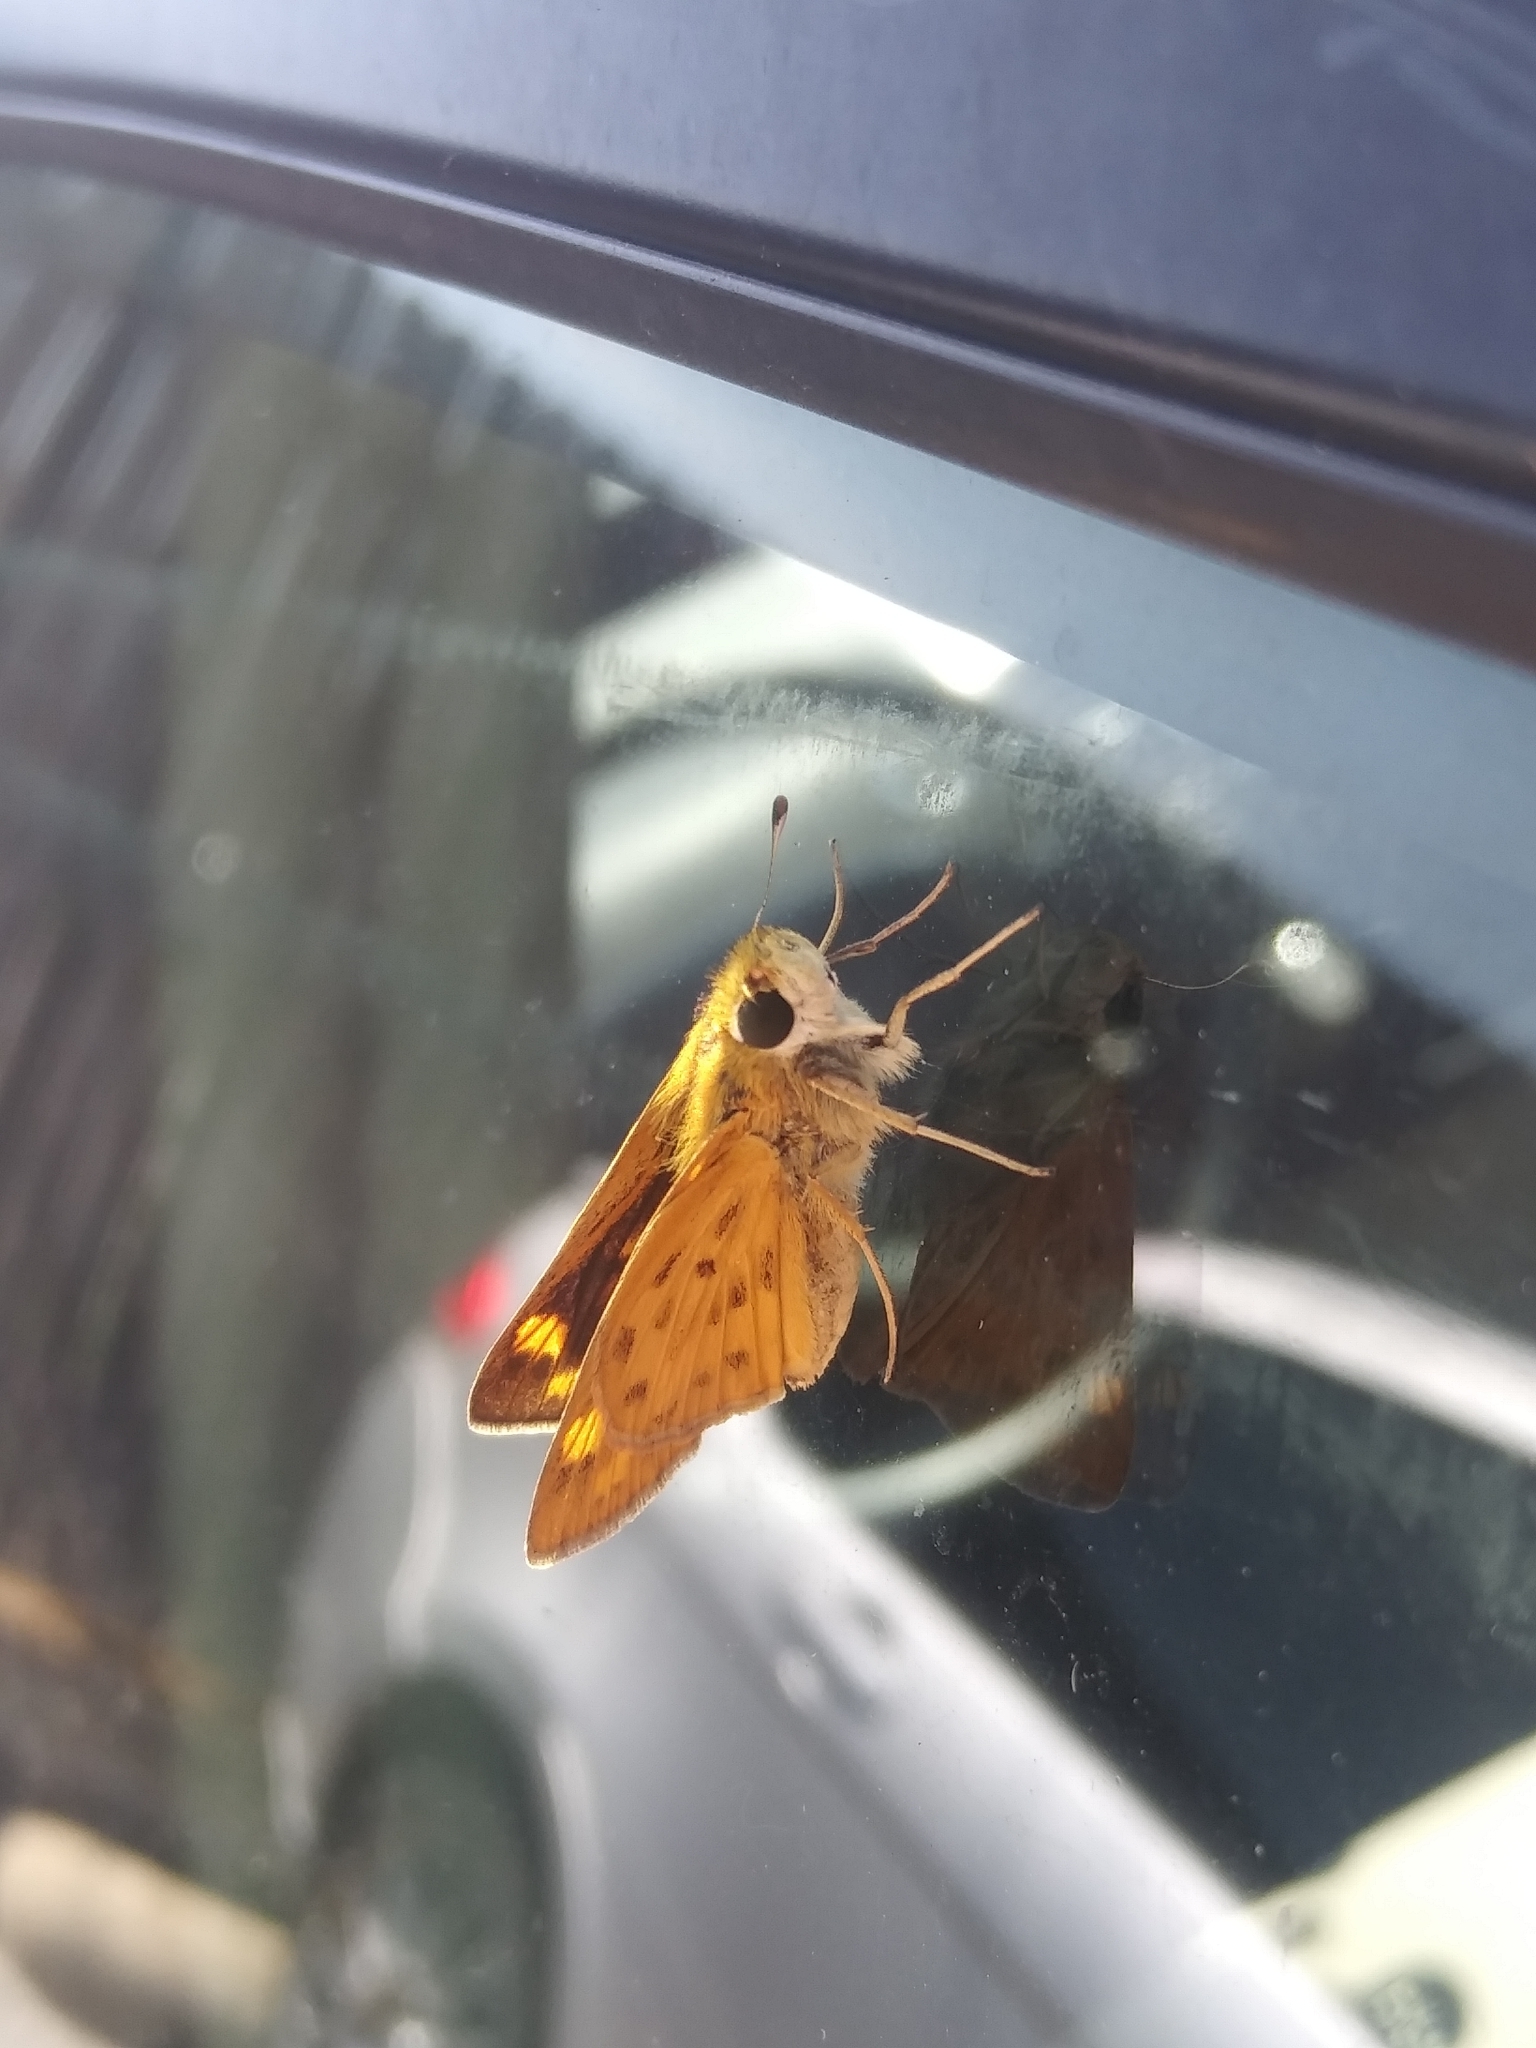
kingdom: Animalia
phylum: Arthropoda
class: Insecta
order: Lepidoptera
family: Hesperiidae
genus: Hylephila
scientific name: Hylephila phyleus
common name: Fiery skipper
